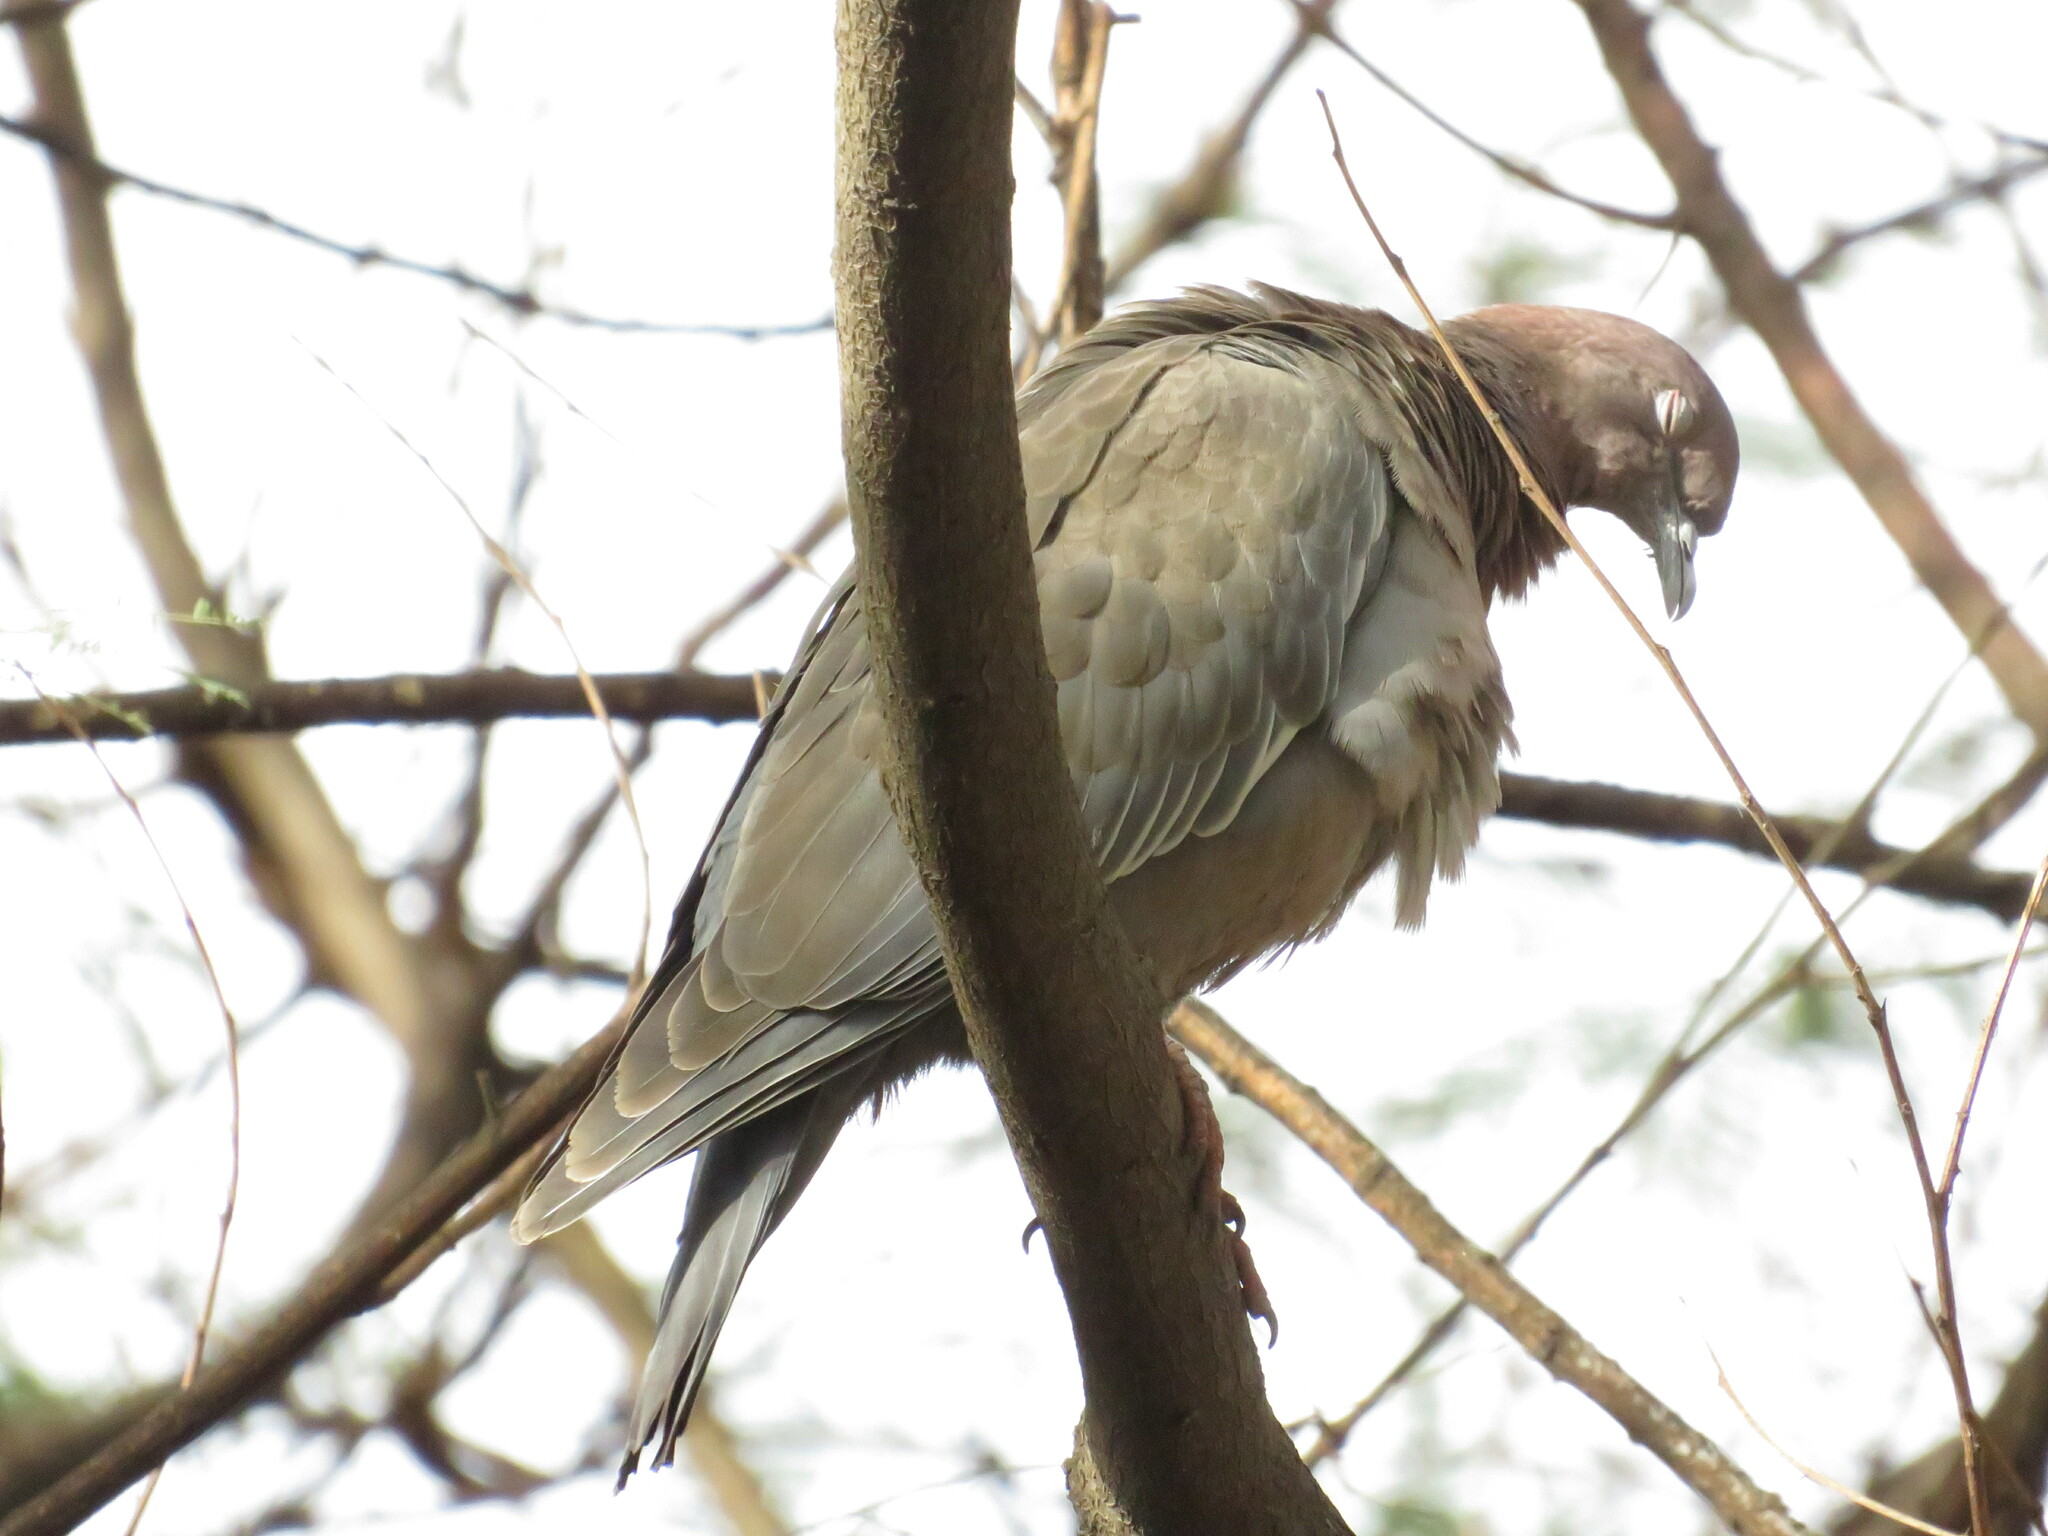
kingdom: Animalia
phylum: Chordata
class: Aves
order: Columbiformes
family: Columbidae
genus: Patagioenas
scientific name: Patagioenas picazuro
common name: Picazuro pigeon
